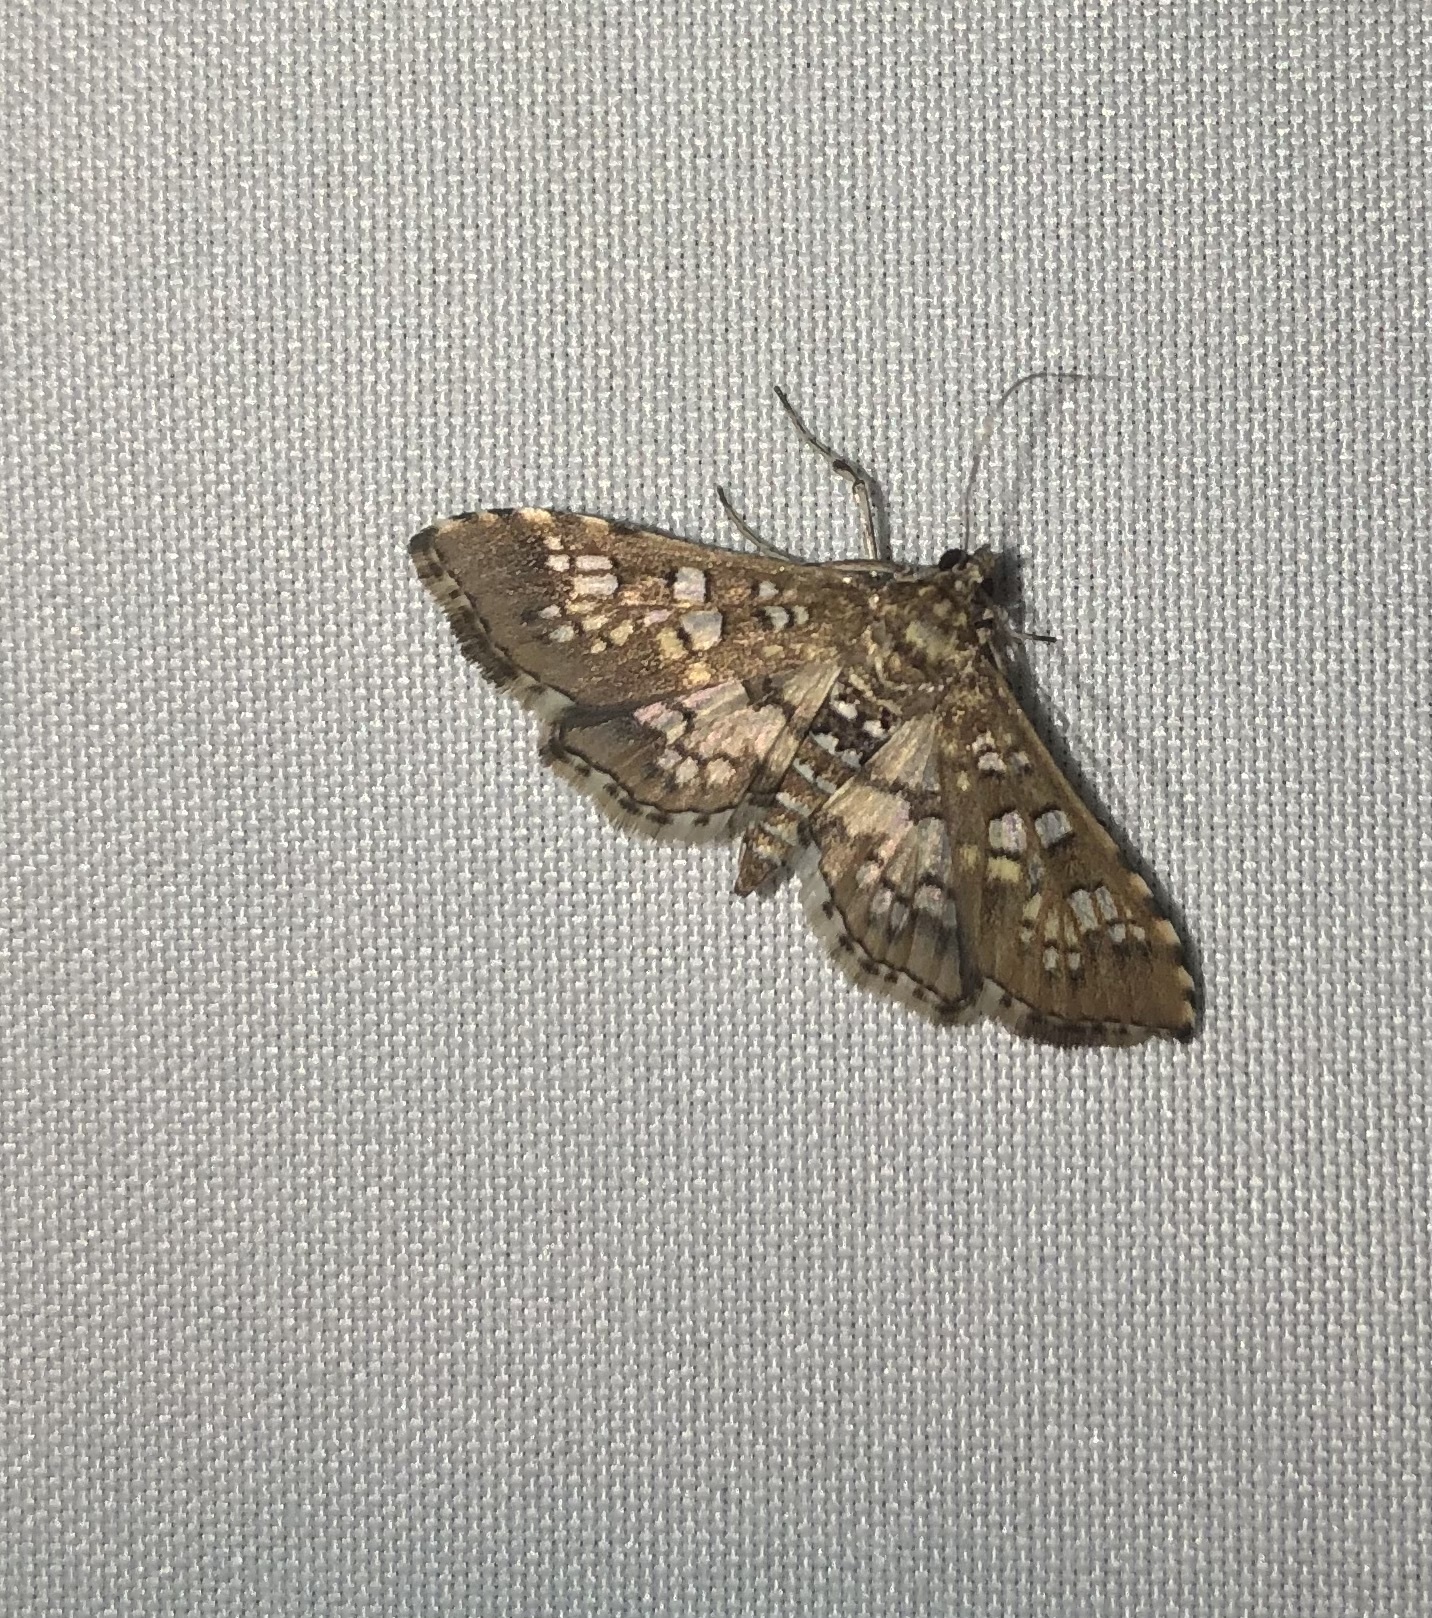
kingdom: Animalia
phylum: Arthropoda
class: Insecta
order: Lepidoptera
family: Crambidae
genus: Samea
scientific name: Samea ecclesialis
